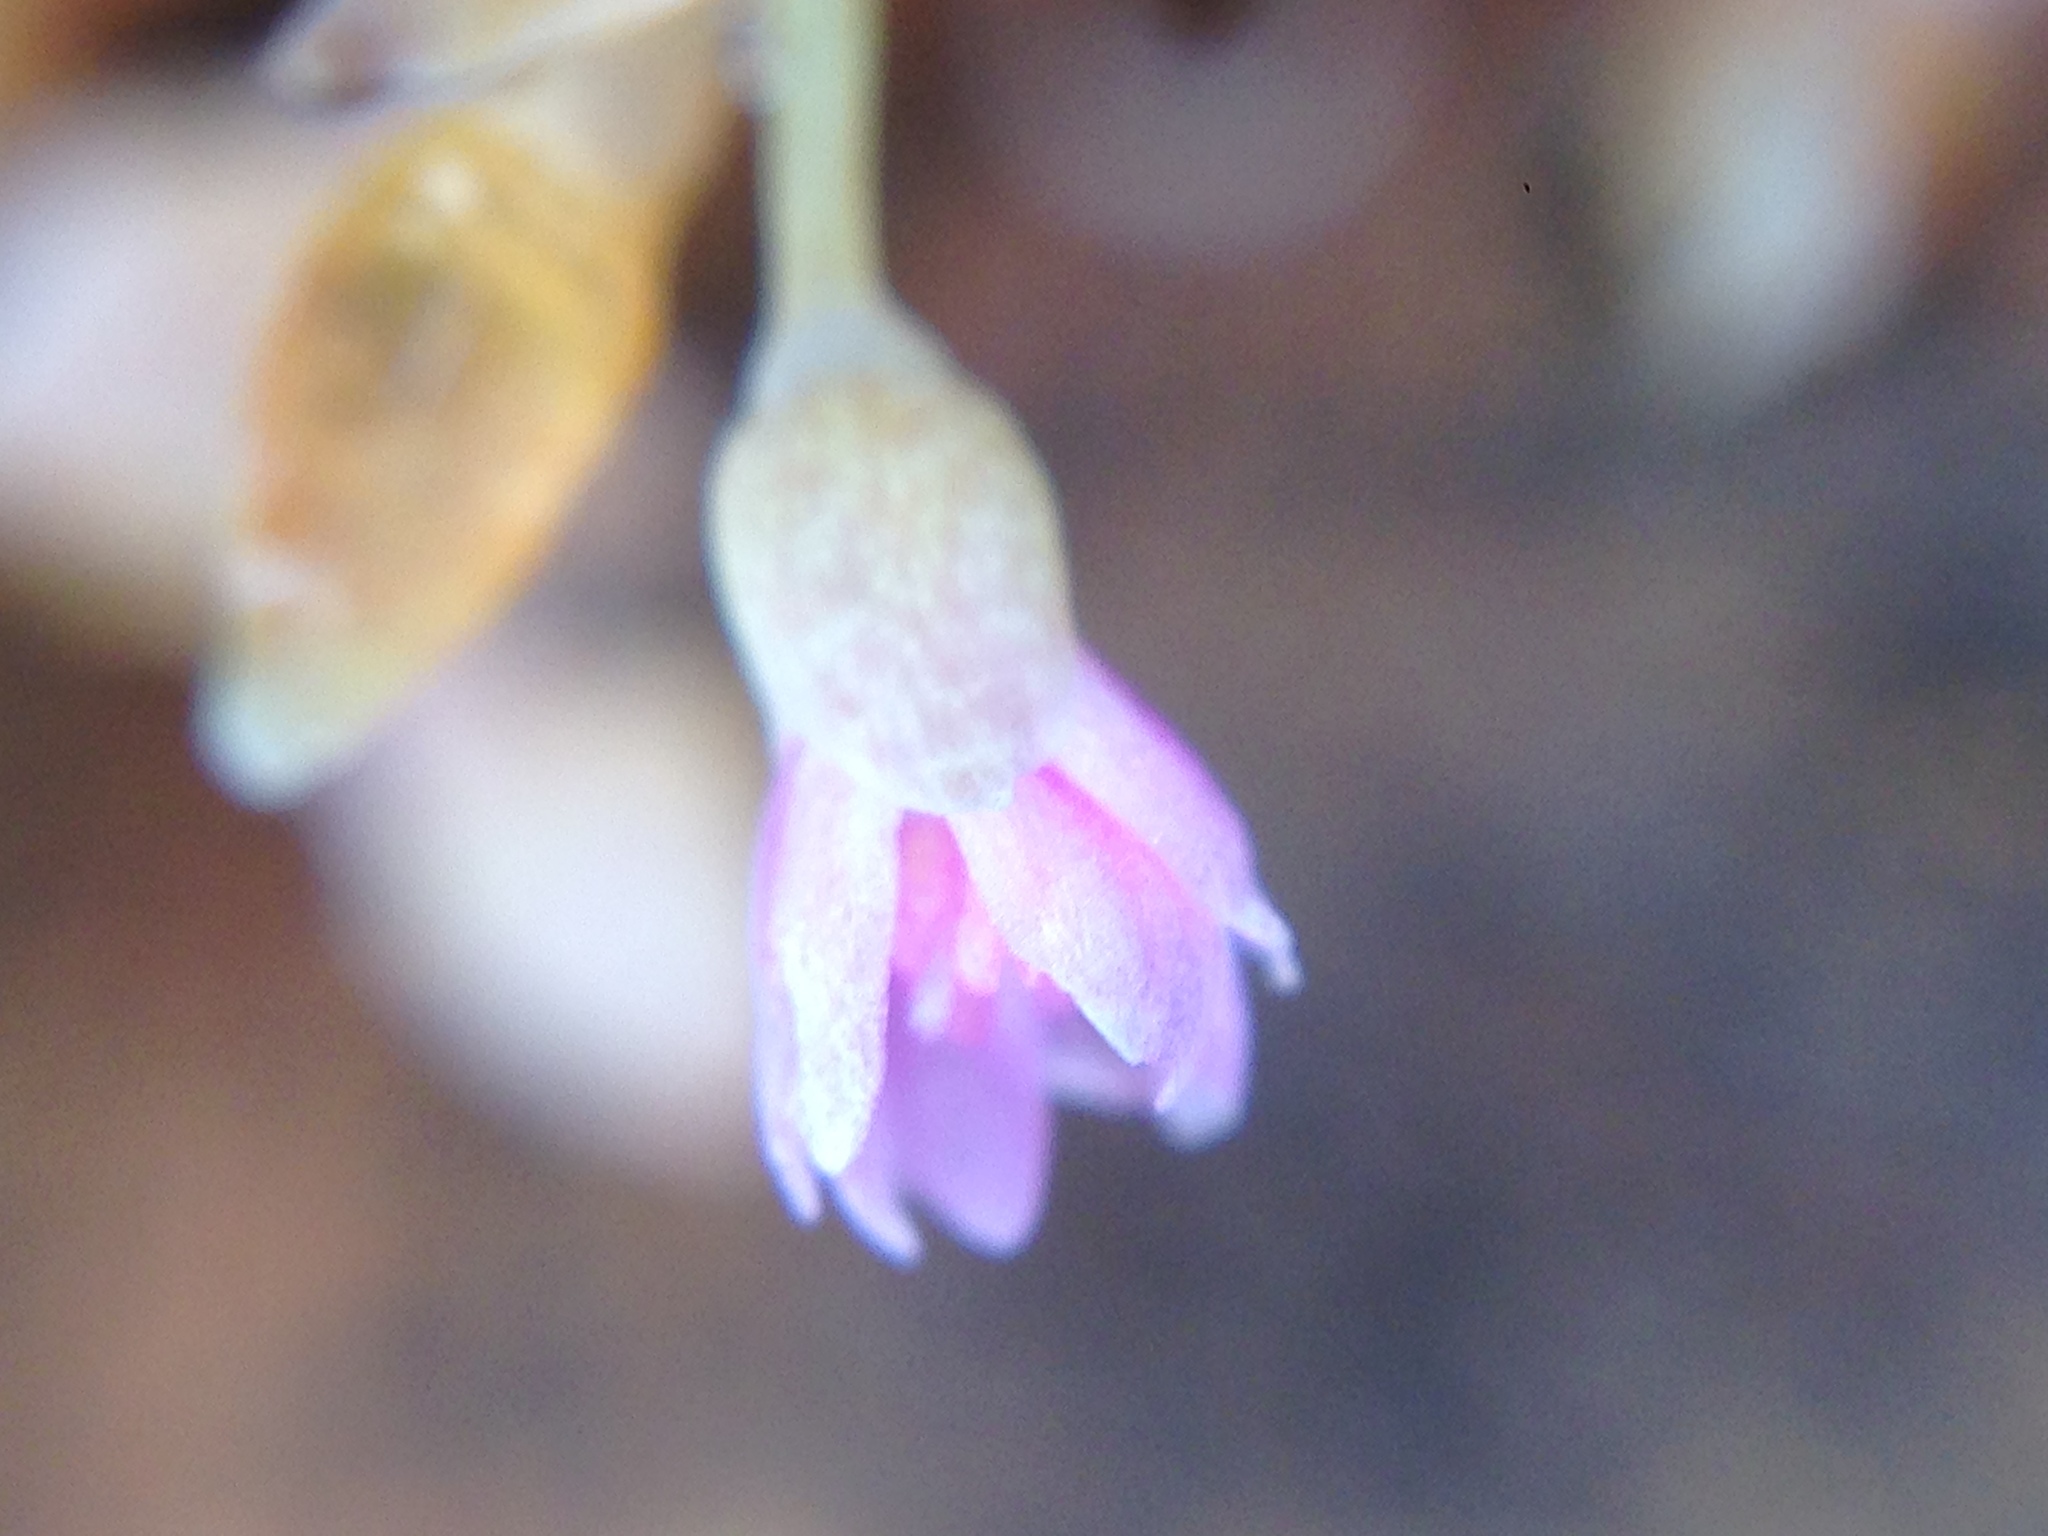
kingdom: Plantae
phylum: Tracheophyta
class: Magnoliopsida
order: Caryophyllales
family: Montiaceae
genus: Claytonia
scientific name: Claytonia exigua
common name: Pale spring beauty
